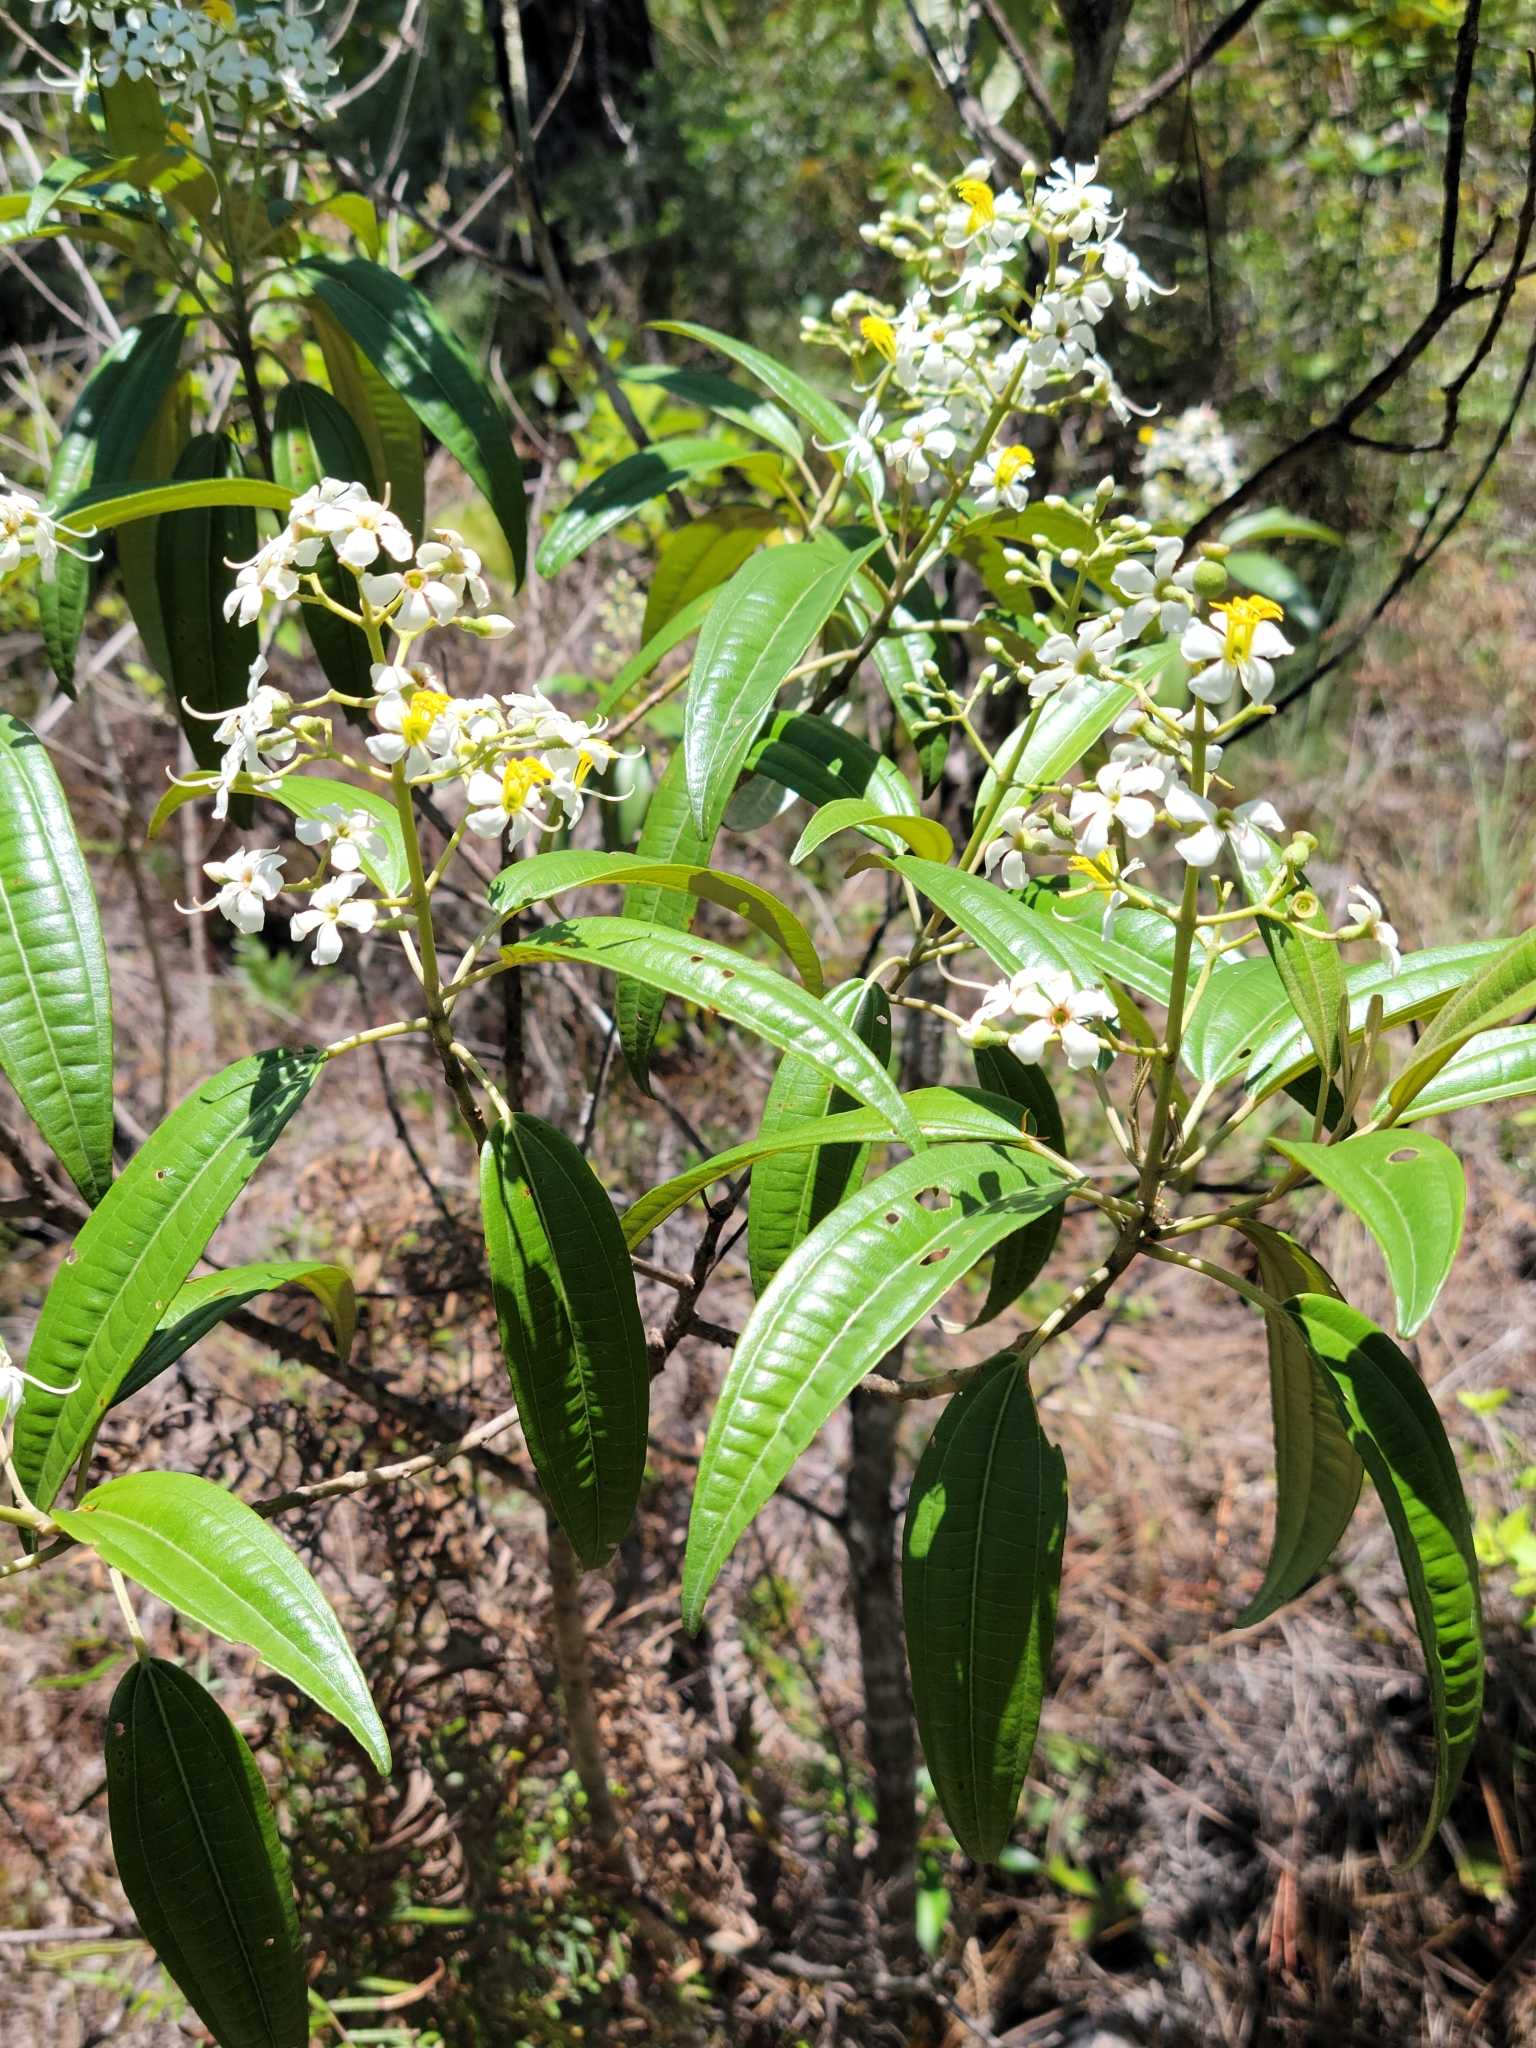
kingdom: Plantae
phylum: Tracheophyta
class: Magnoliopsida
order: Myrtales
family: Melastomataceae
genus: Miconia
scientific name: Miconia bicolor
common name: Johnnyberry
